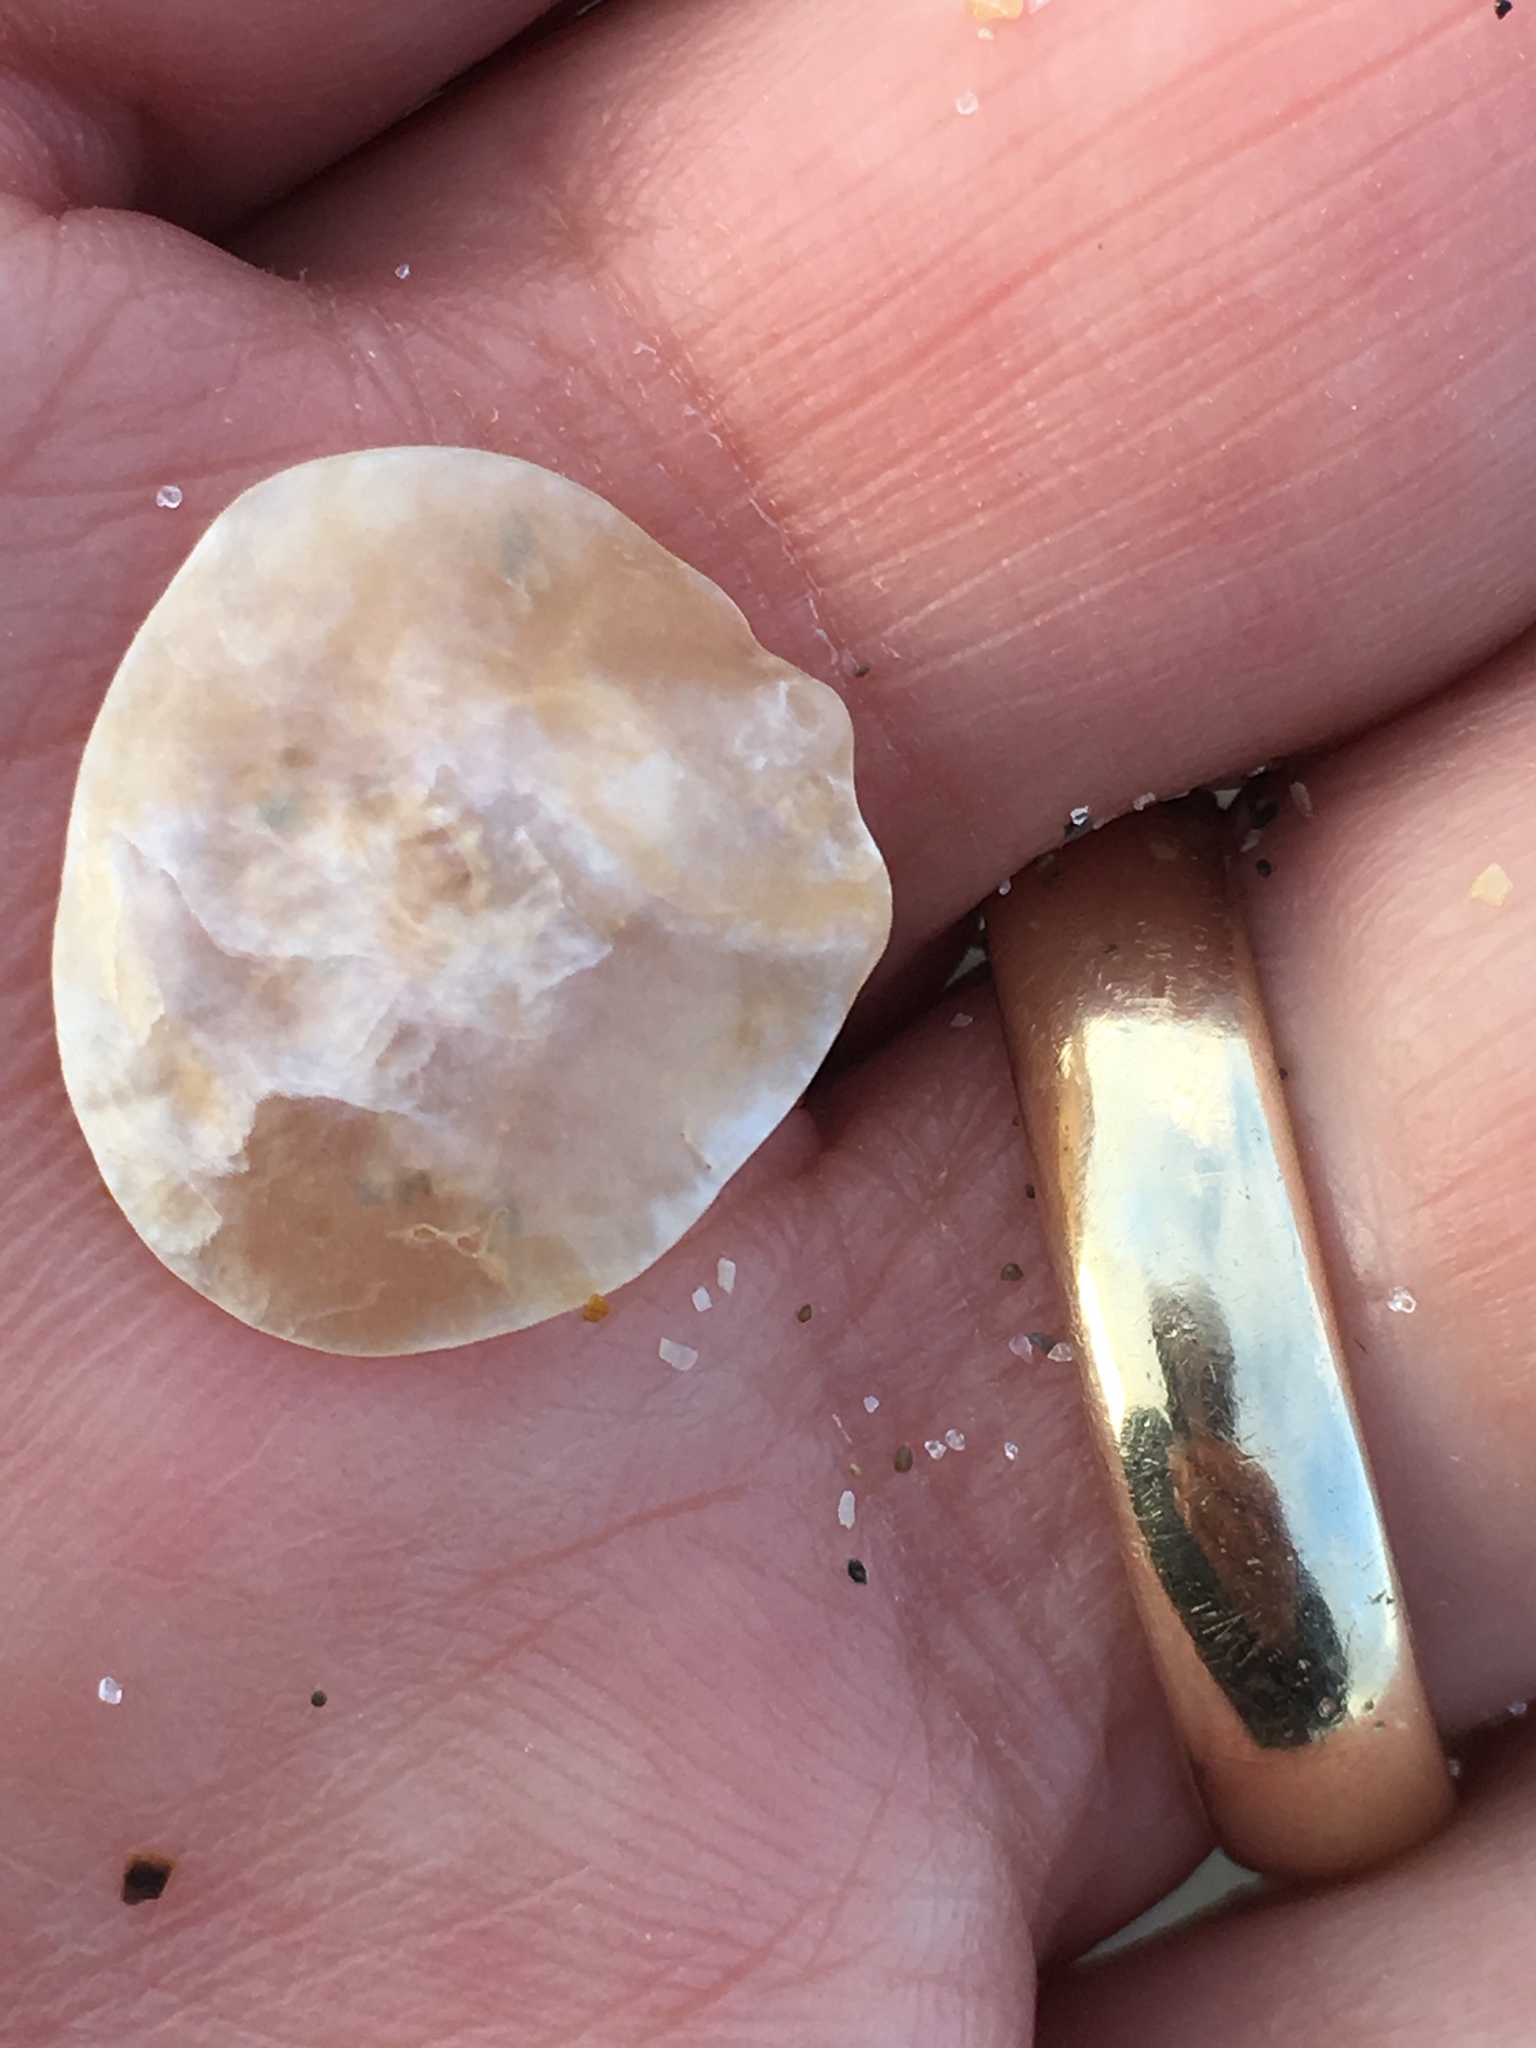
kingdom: Animalia
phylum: Mollusca
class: Bivalvia
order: Pectinida
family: Anomiidae
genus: Anomia
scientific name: Anomia simplex
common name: Common jingle shell
